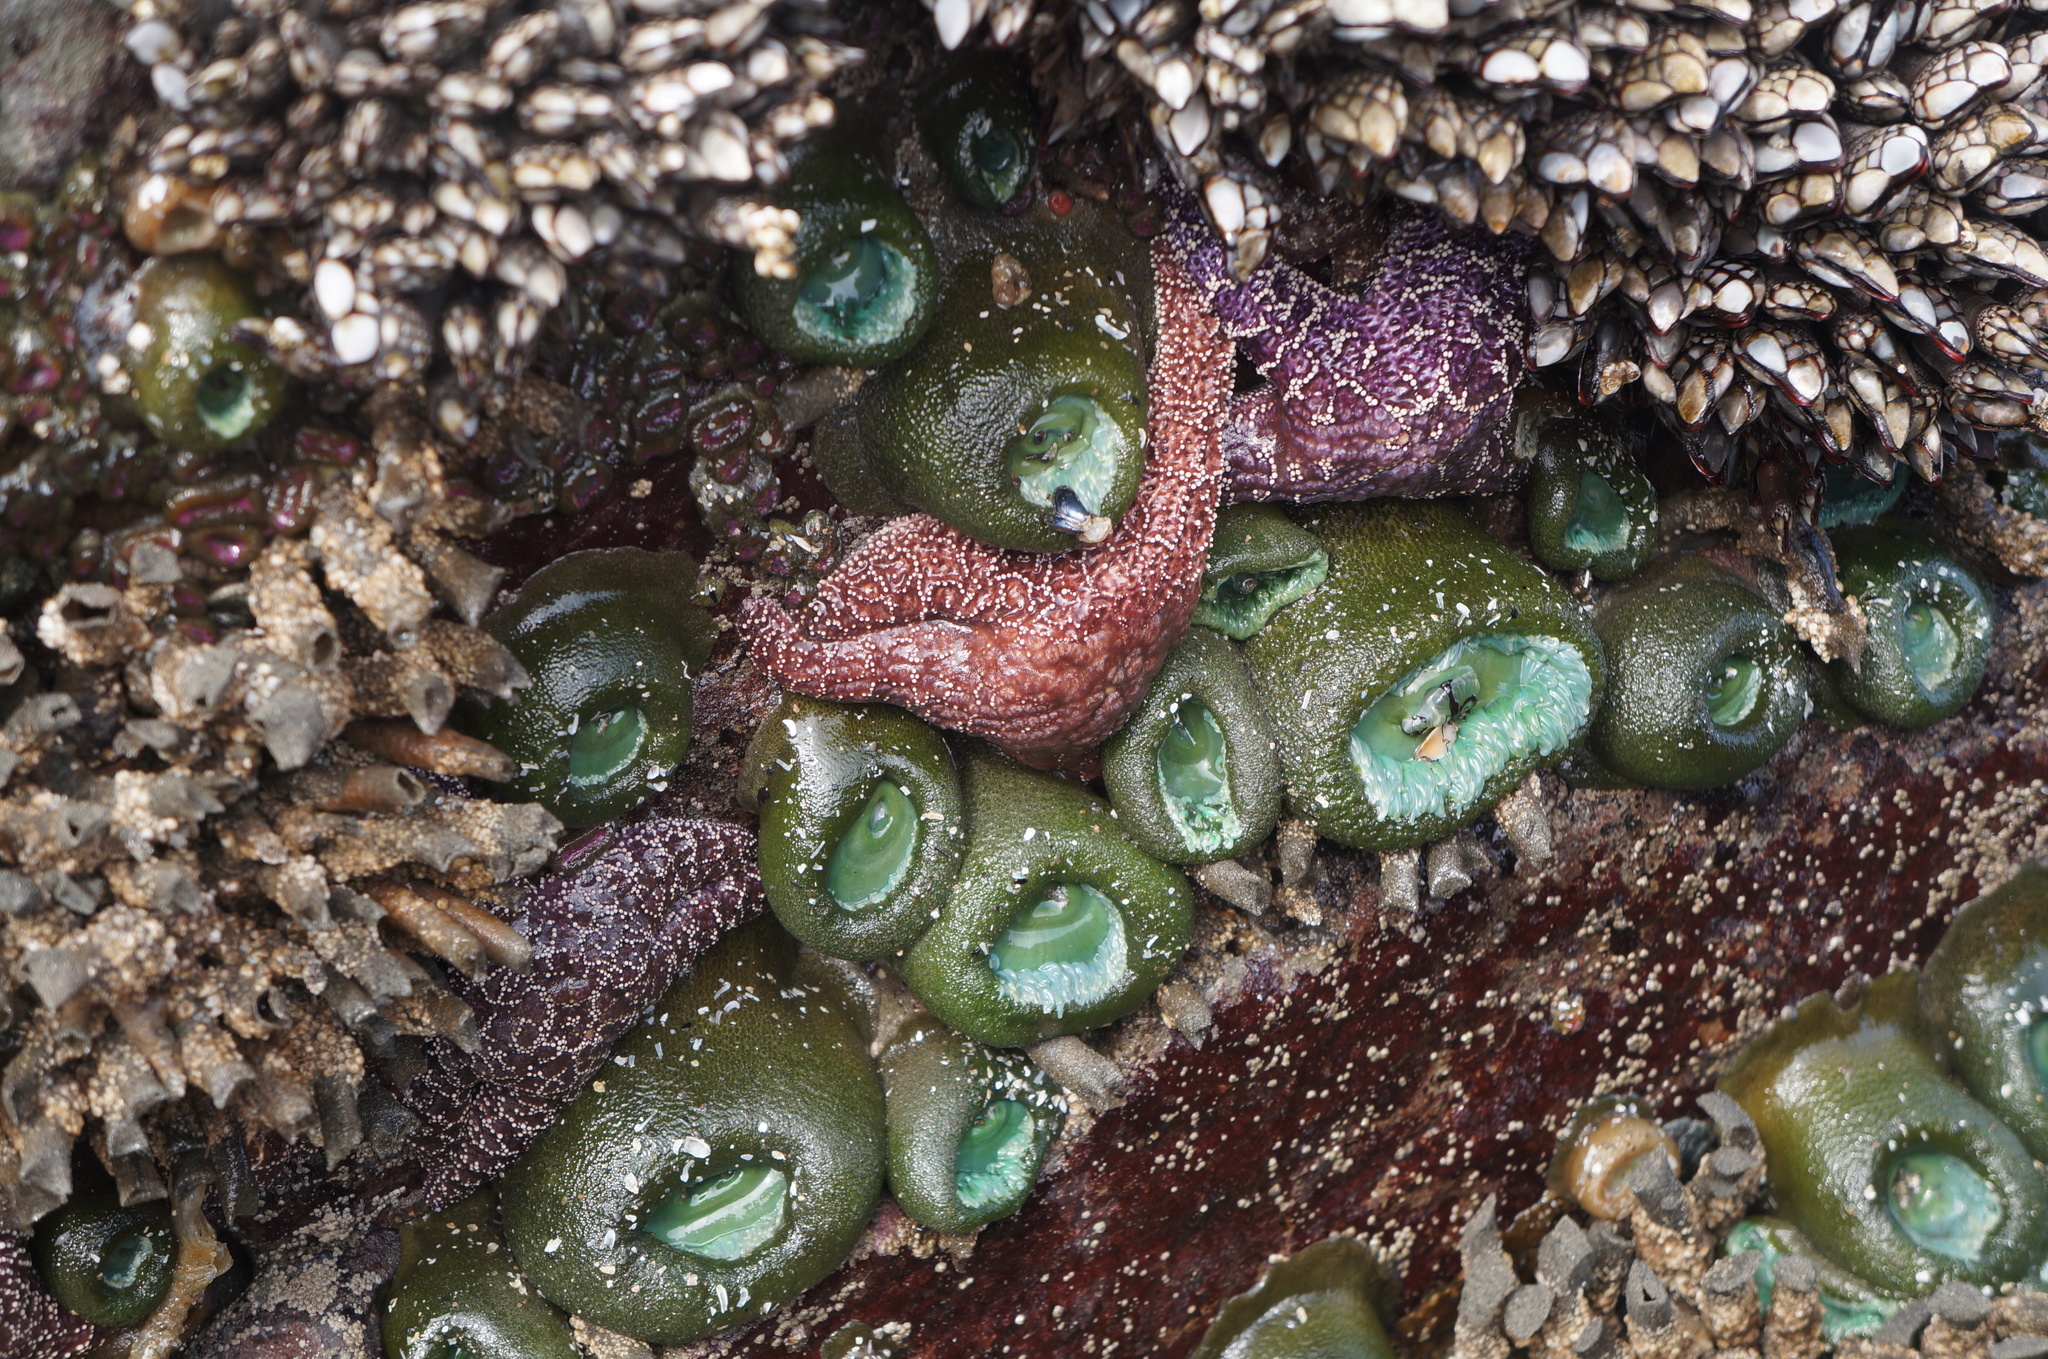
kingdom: Animalia
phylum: Cnidaria
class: Anthozoa
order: Actiniaria
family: Actiniidae
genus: Anthopleura
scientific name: Anthopleura xanthogrammica
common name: Giant green anemone
